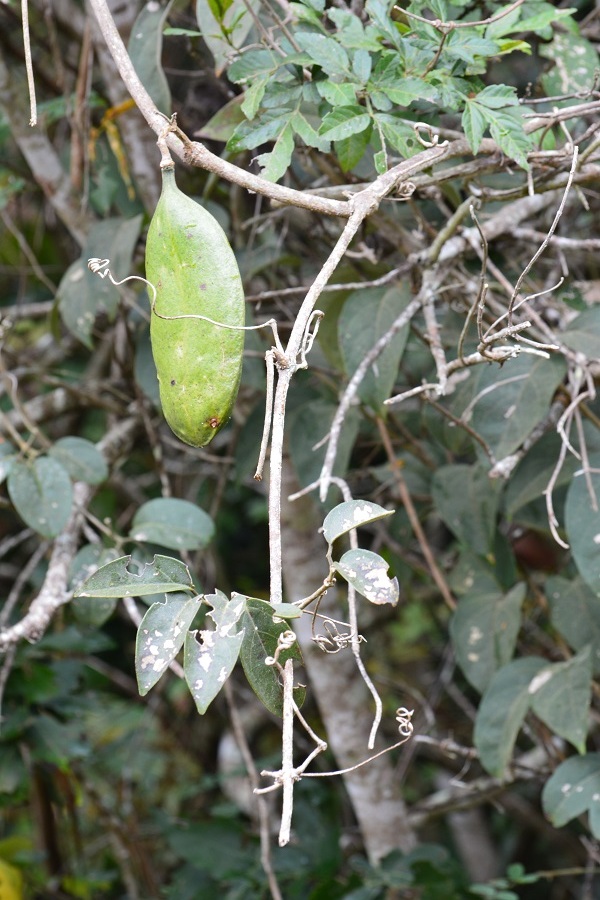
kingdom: Plantae
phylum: Tracheophyta
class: Magnoliopsida
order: Lamiales
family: Bignoniaceae
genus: Anemopaegma
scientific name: Anemopaegma puberulum
